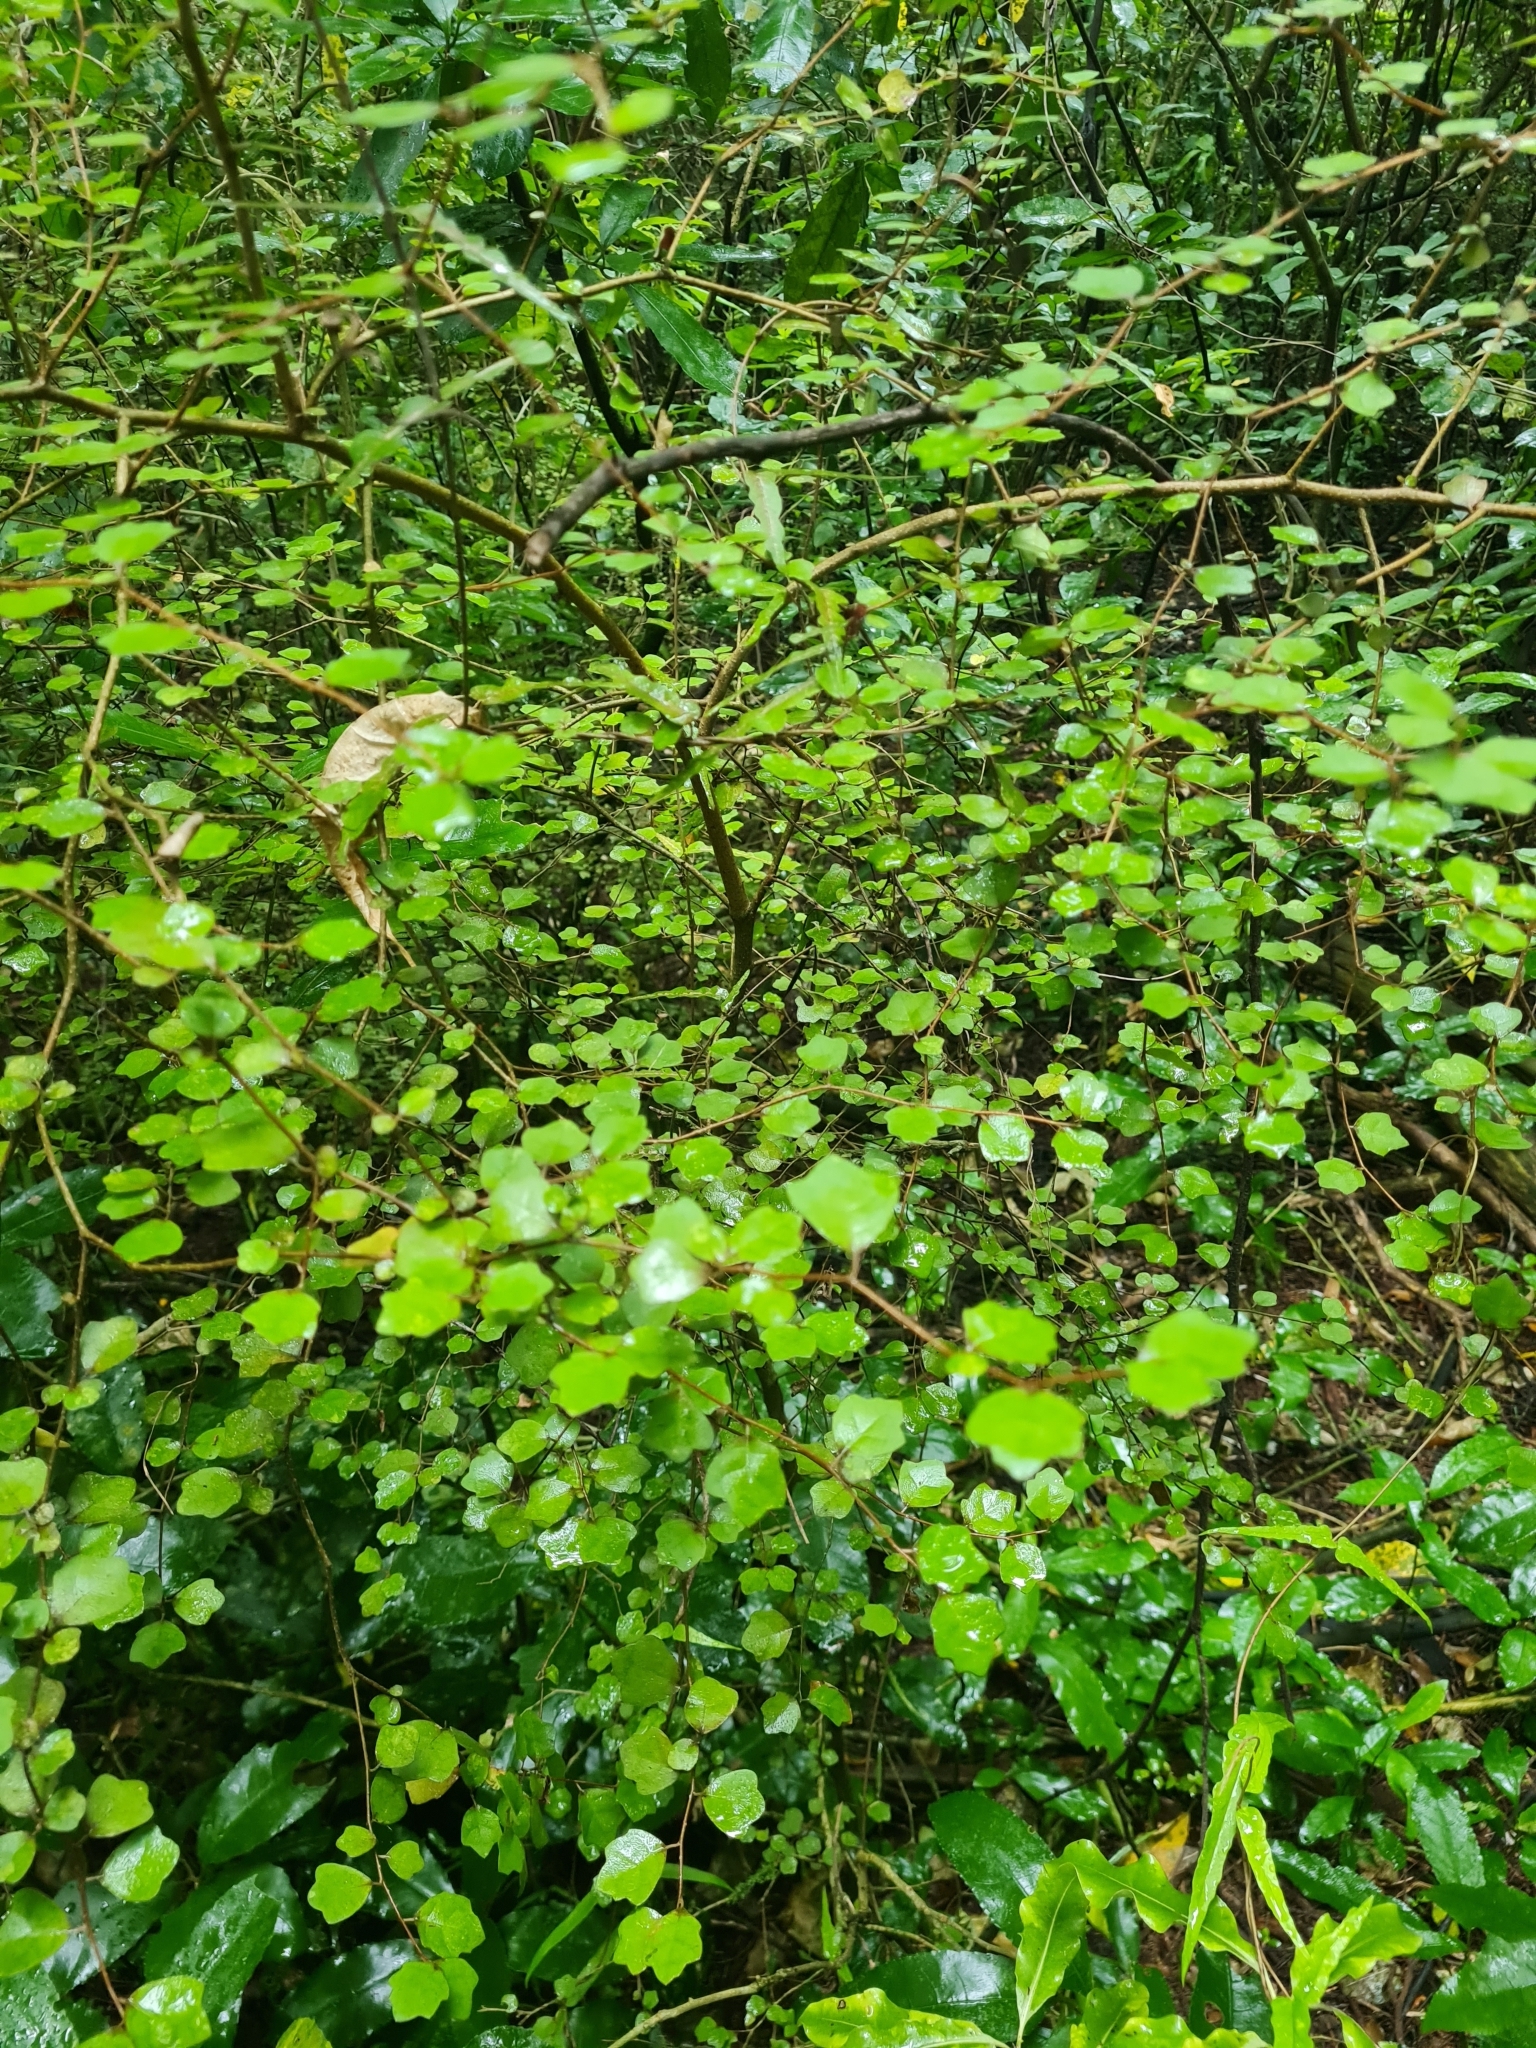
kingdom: Plantae
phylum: Tracheophyta
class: Magnoliopsida
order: Apiales
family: Pennantiaceae
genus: Pennantia
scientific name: Pennantia corymbosa
